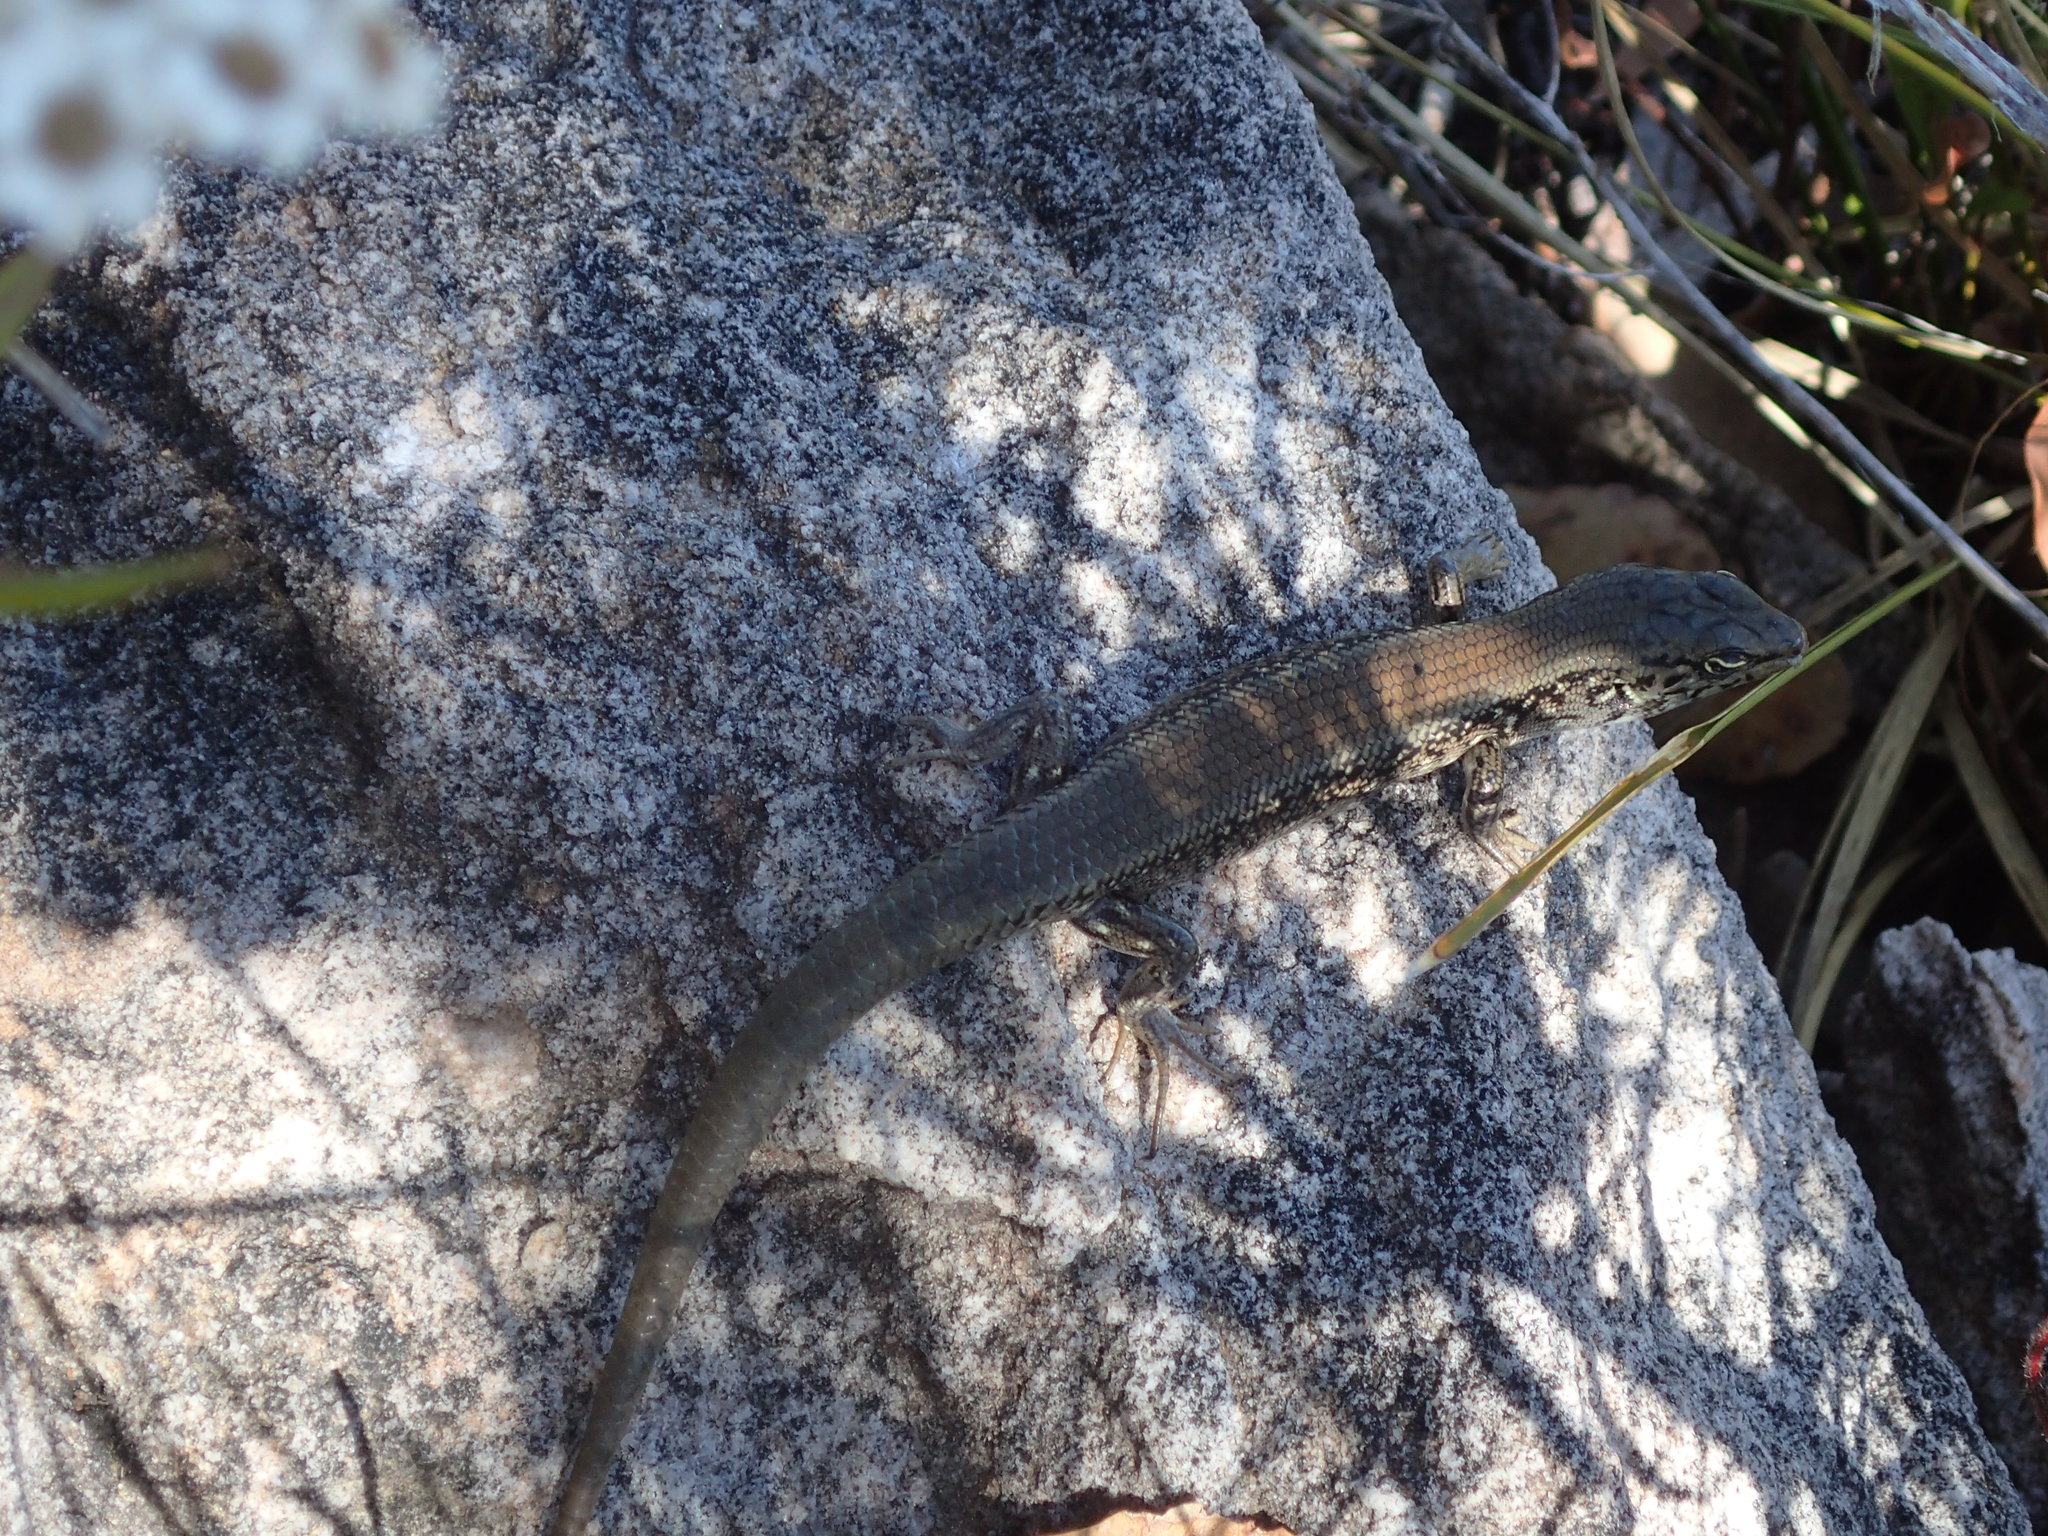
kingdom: Animalia
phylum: Chordata
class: Squamata
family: Scincidae
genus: Liopholis
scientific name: Liopholis whitii
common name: White's rock-skink
